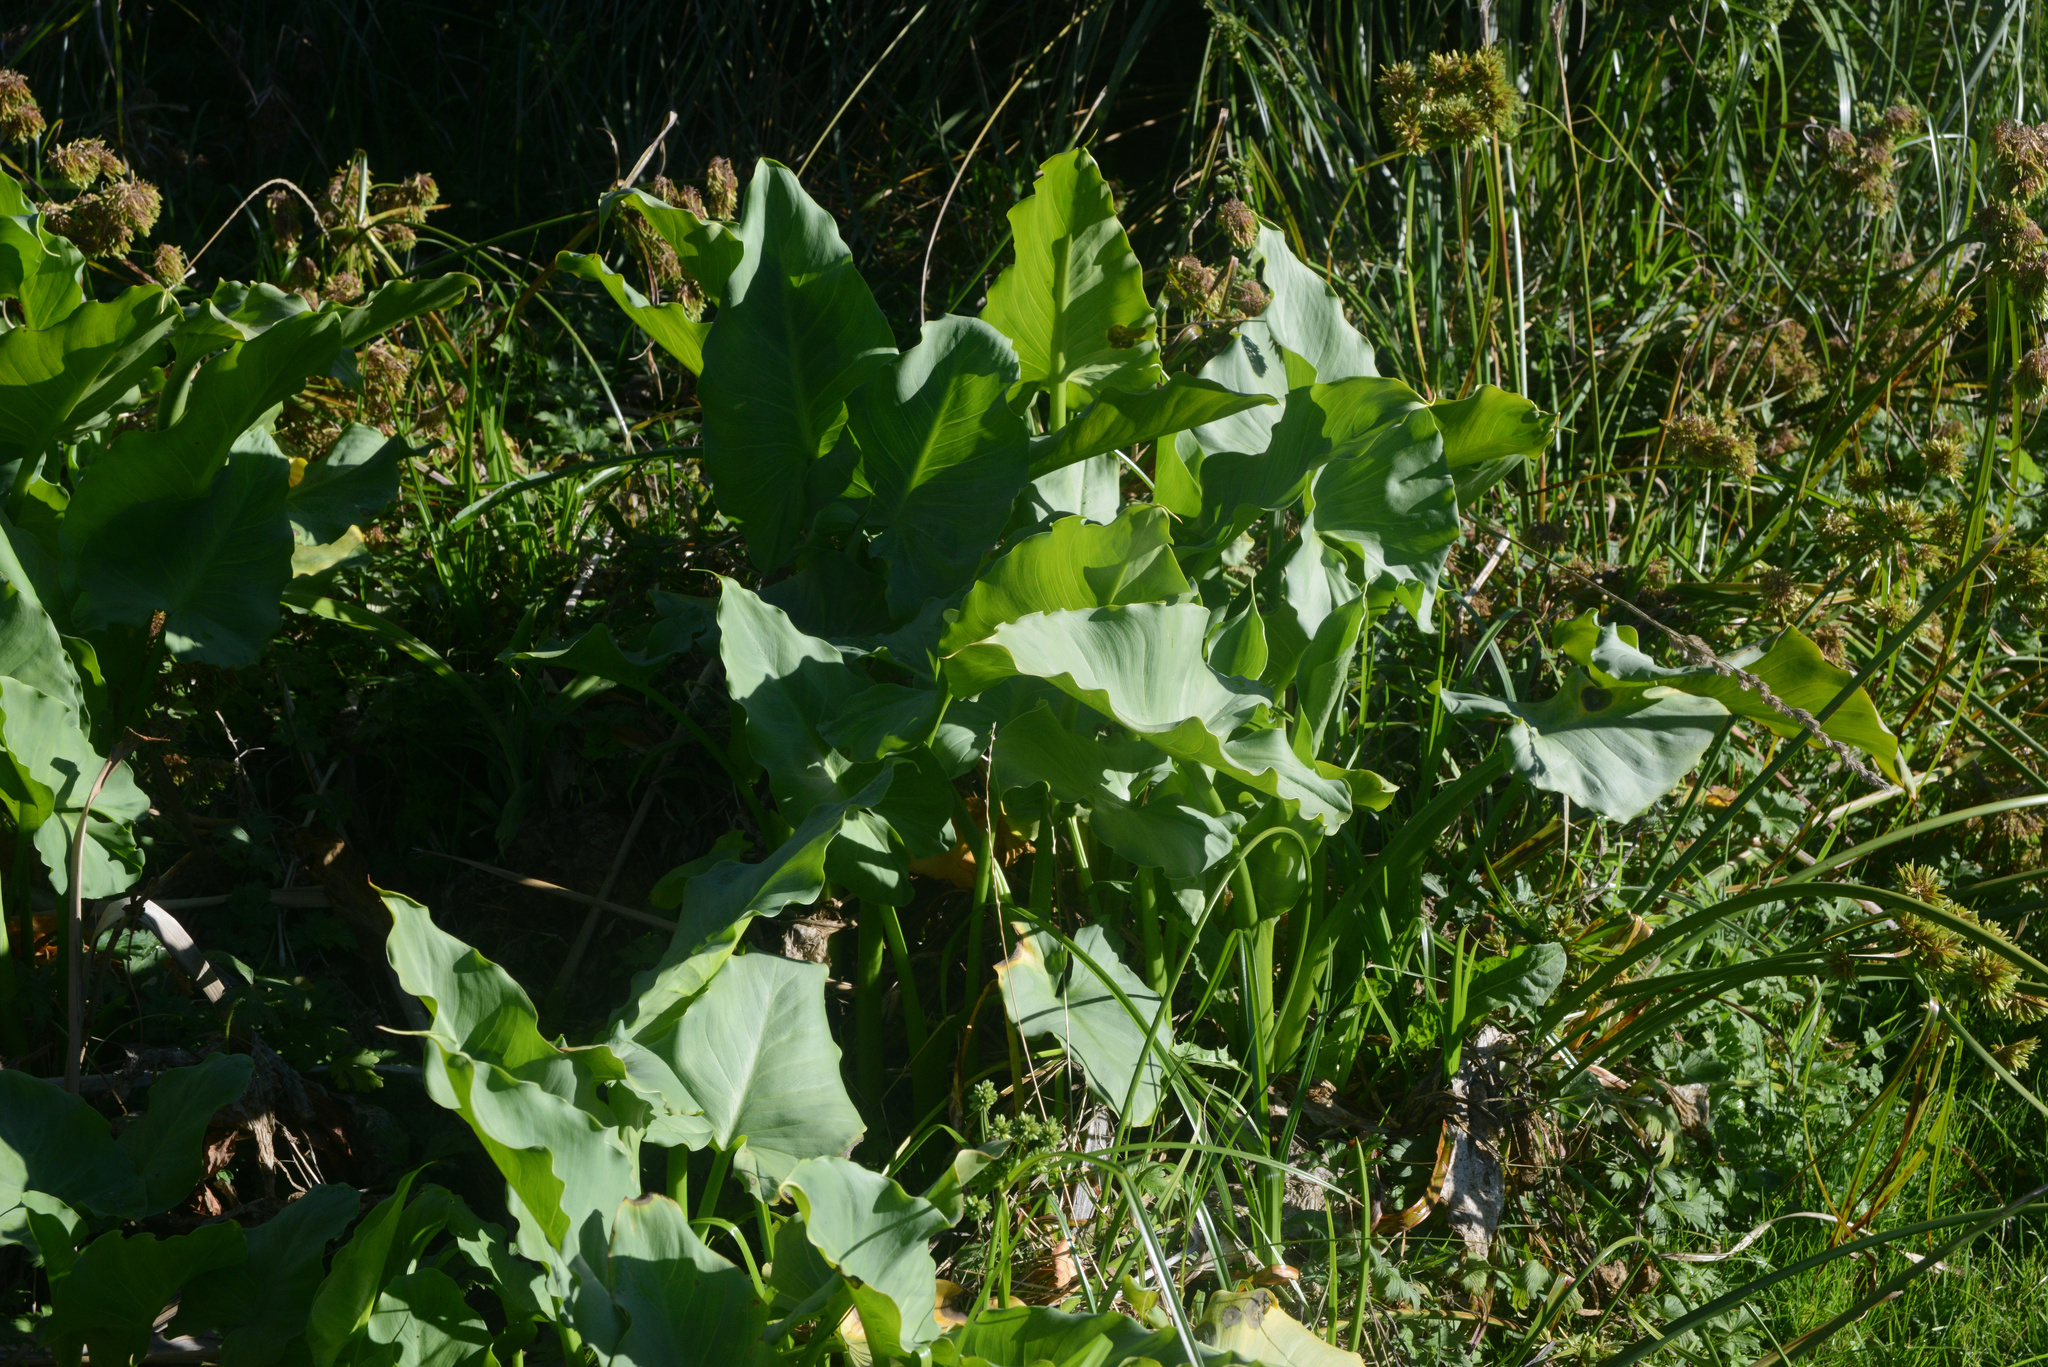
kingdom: Plantae
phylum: Tracheophyta
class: Liliopsida
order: Alismatales
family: Araceae
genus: Zantedeschia
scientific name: Zantedeschia aethiopica
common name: Altar-lily
